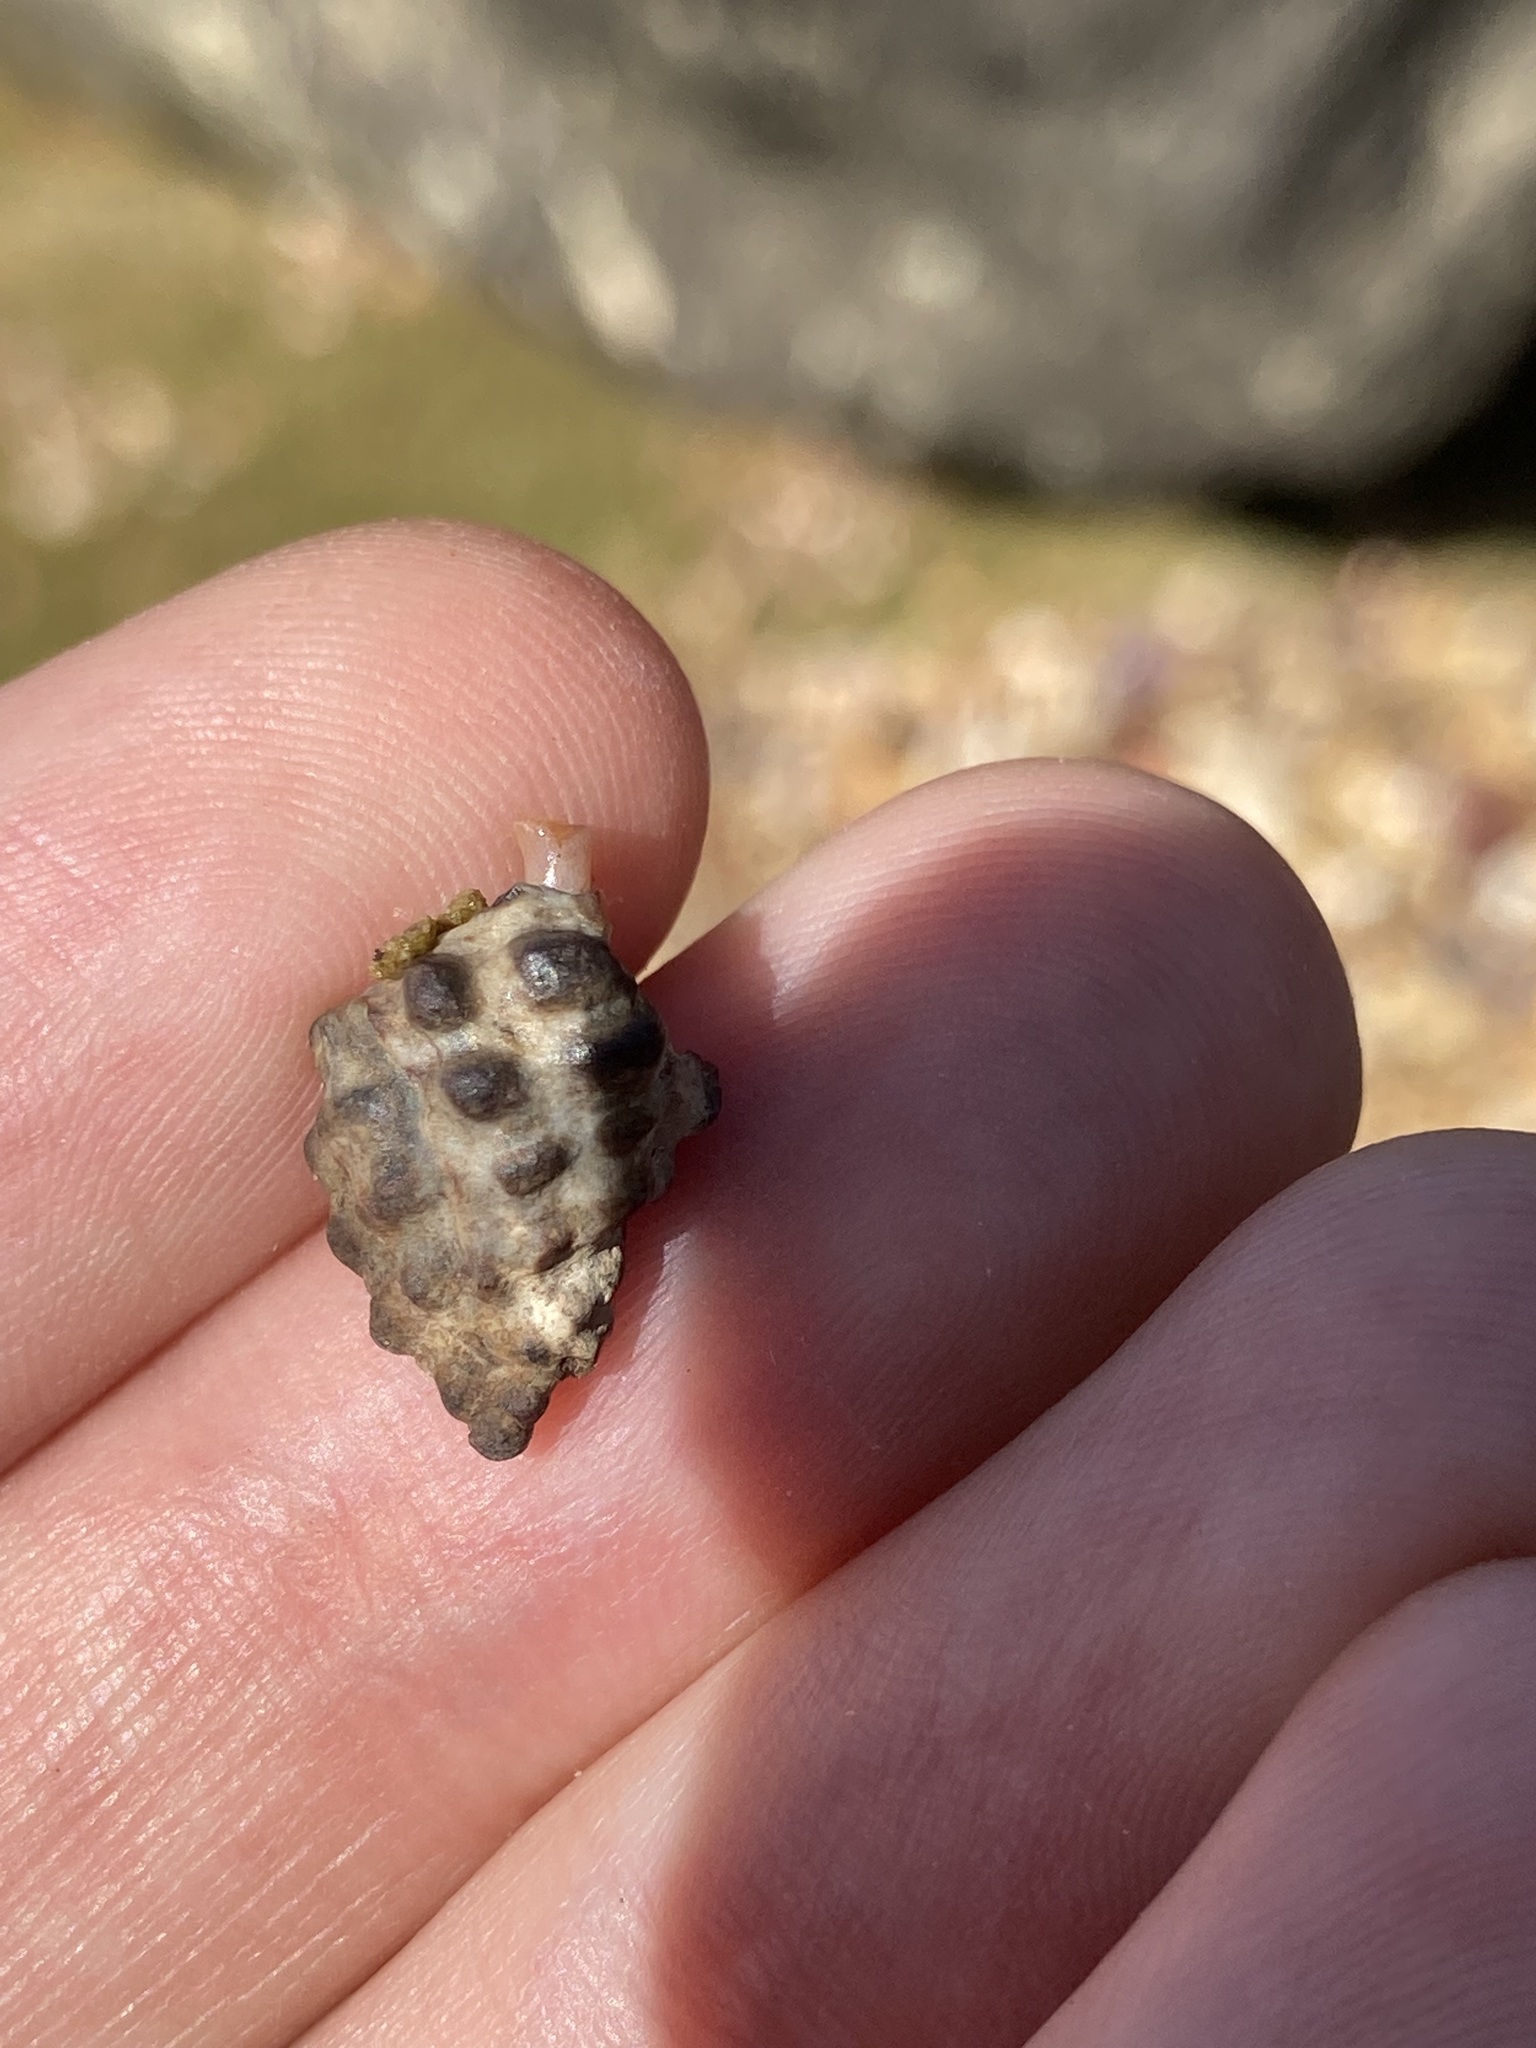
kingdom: Animalia
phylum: Mollusca
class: Gastropoda
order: Neogastropoda
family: Muricidae
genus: Tenguella
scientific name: Tenguella marginalba
